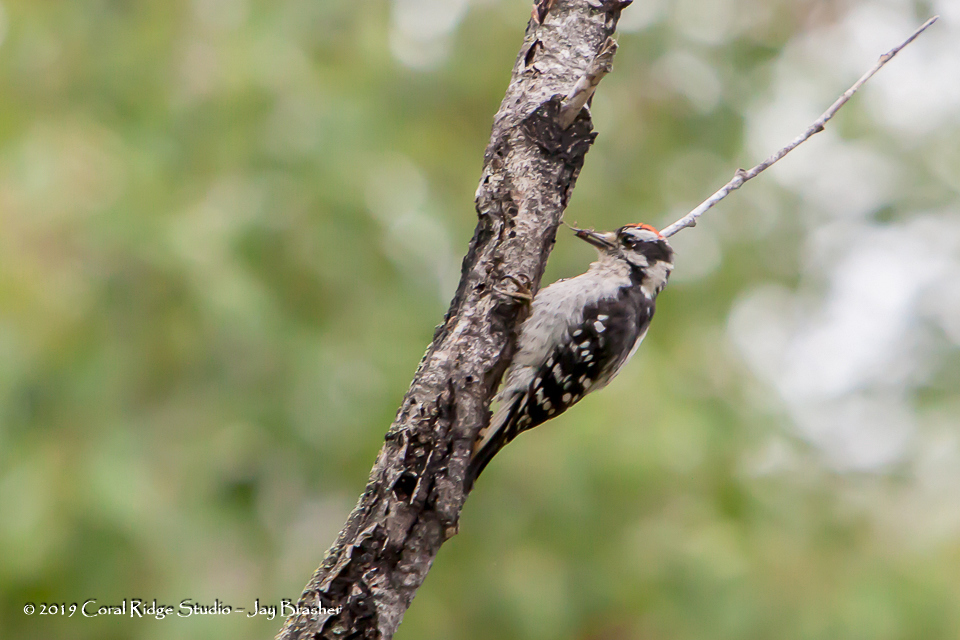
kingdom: Animalia
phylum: Chordata
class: Aves
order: Piciformes
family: Picidae
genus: Dryobates
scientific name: Dryobates pubescens
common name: Downy woodpecker
